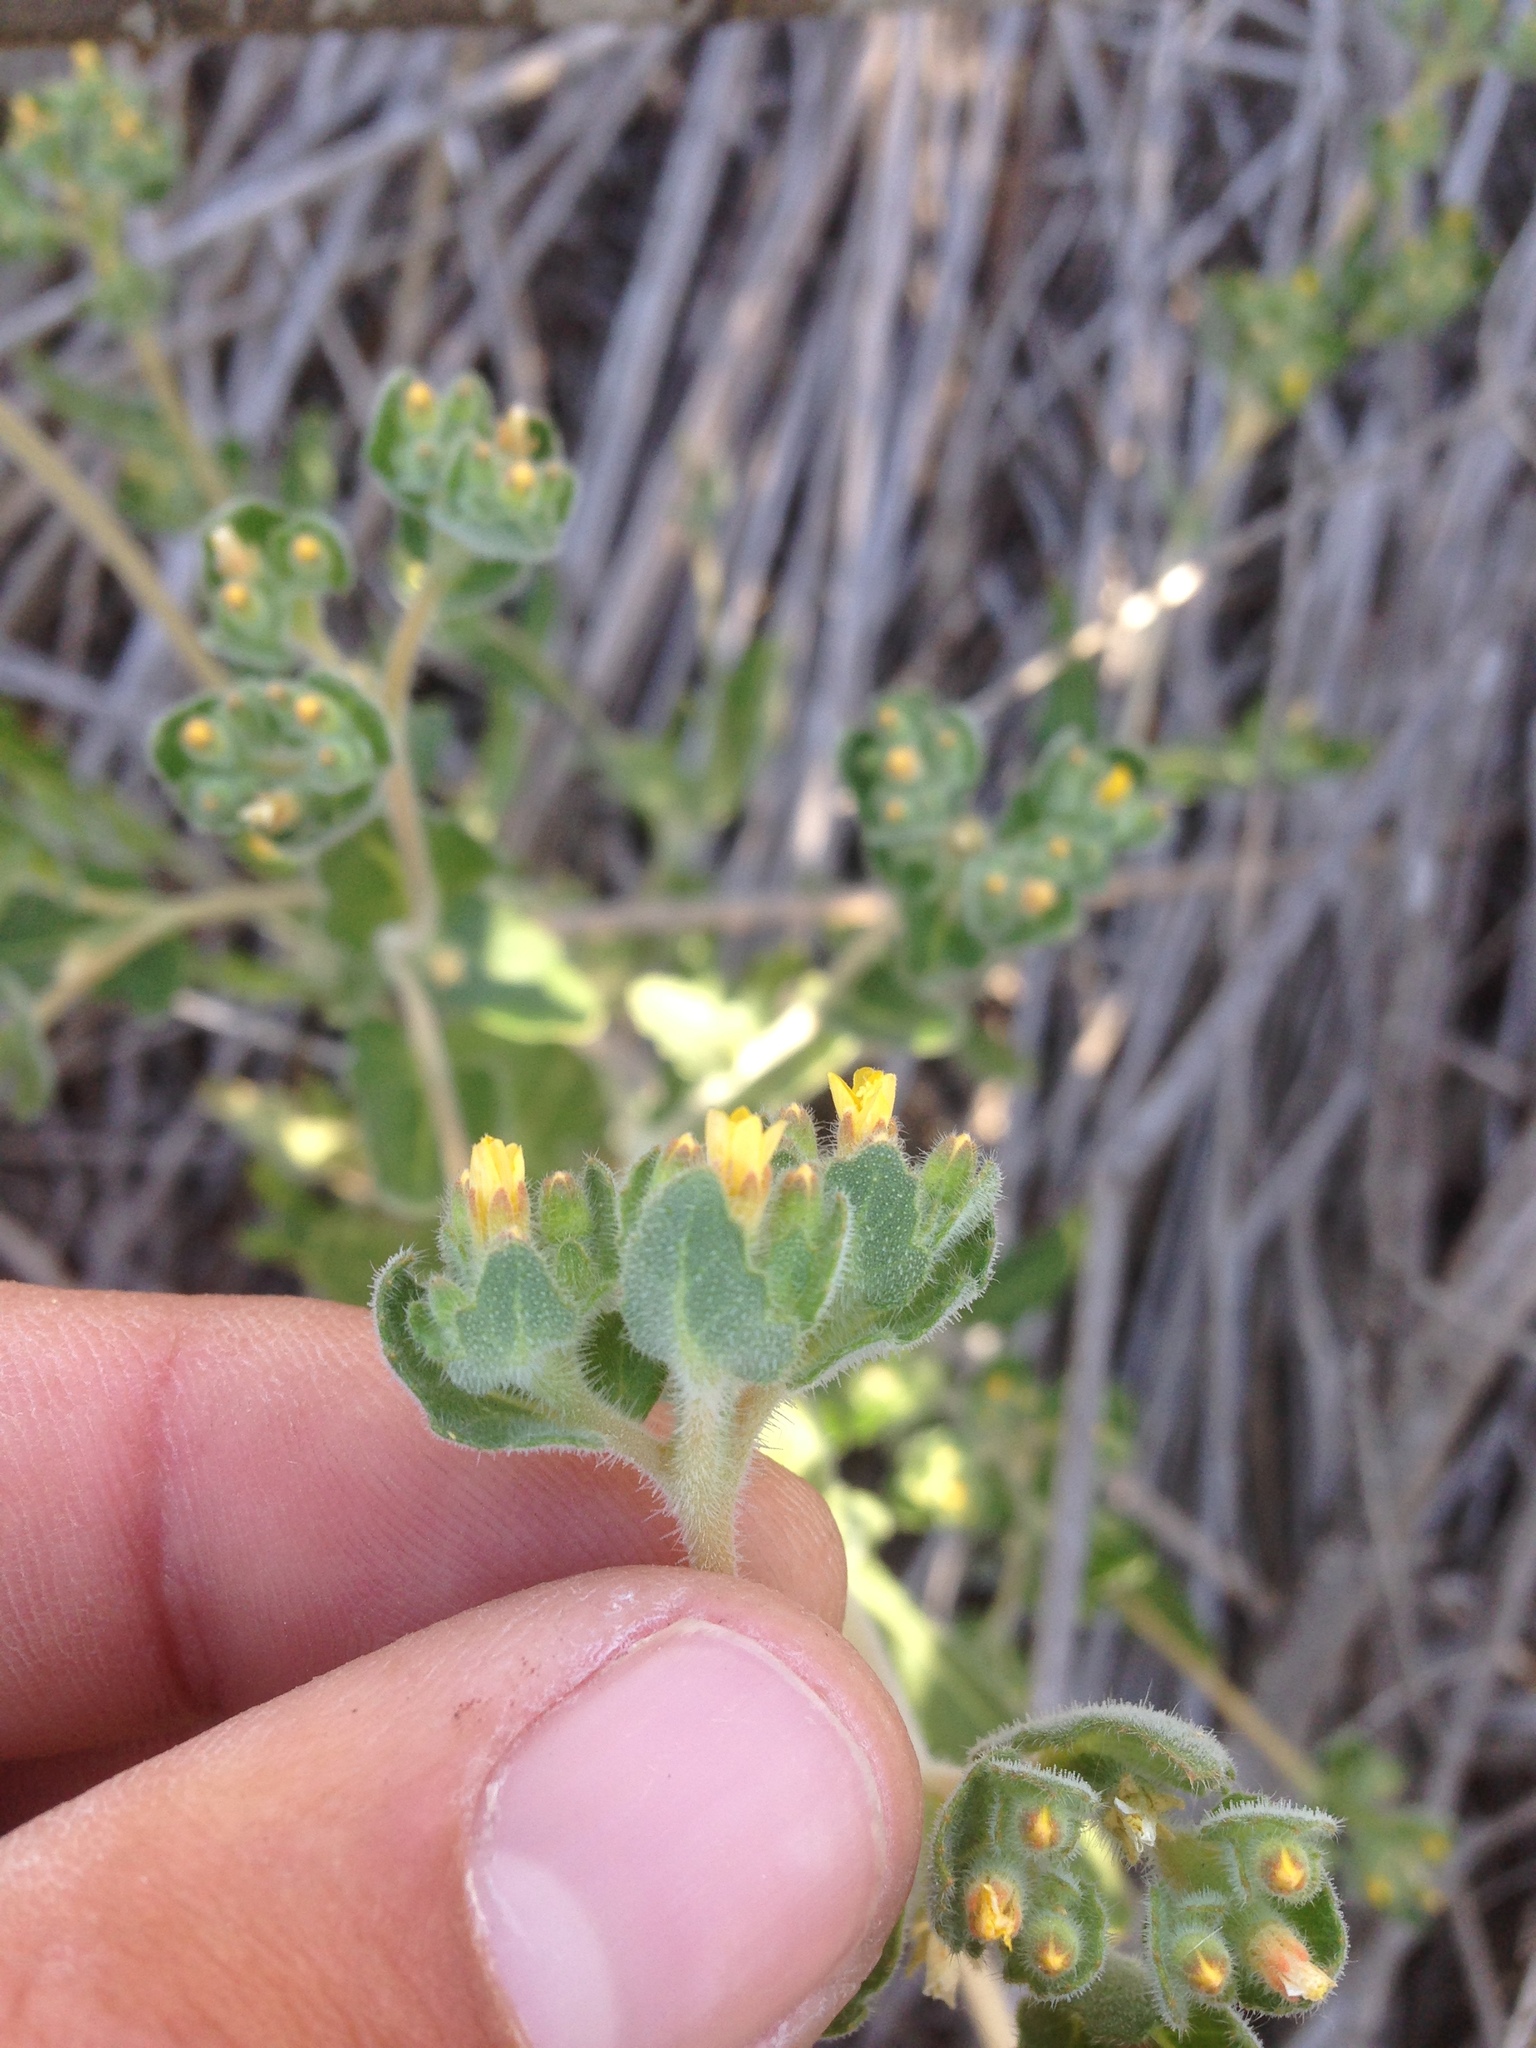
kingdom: Plantae
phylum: Tracheophyta
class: Magnoliopsida
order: Cornales
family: Loasaceae
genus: Mentzelia
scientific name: Mentzelia micrantha
